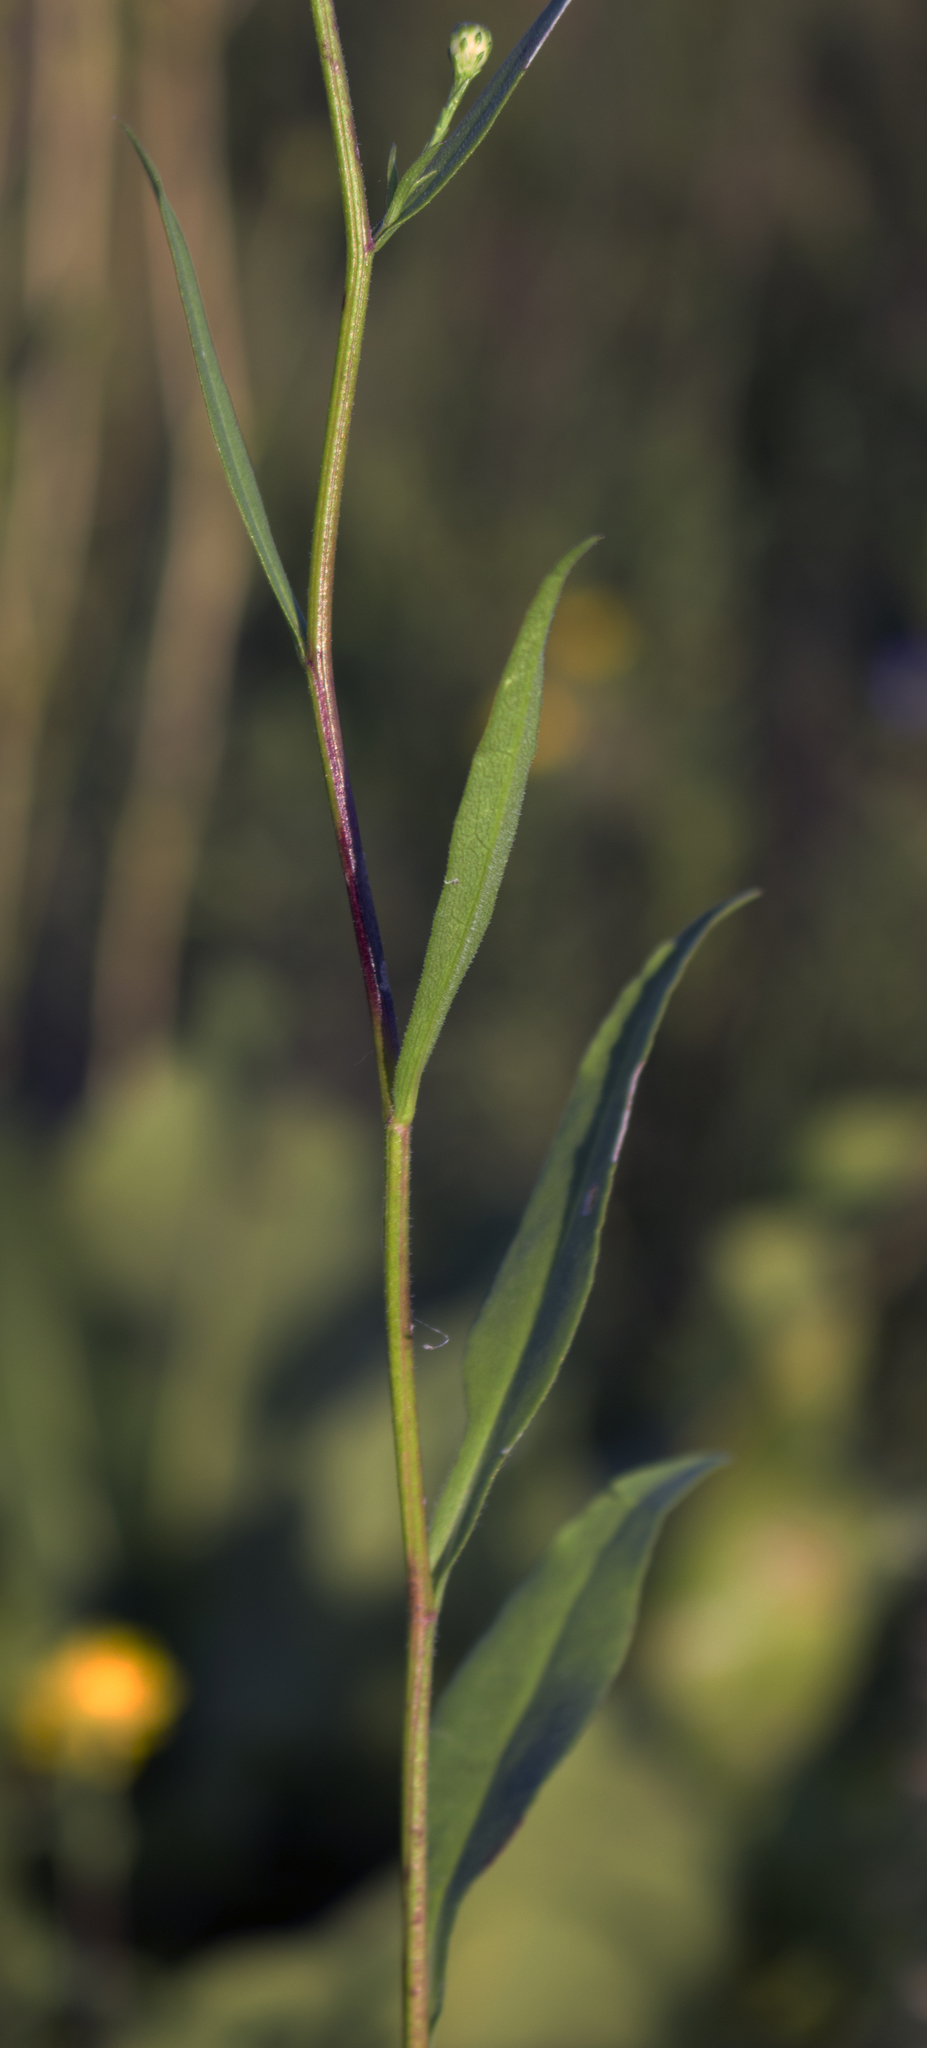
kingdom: Plantae
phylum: Tracheophyta
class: Magnoliopsida
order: Asterales
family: Asteraceae
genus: Symphyotrichum
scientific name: Symphyotrichum oolentangiense
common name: Azure aster
